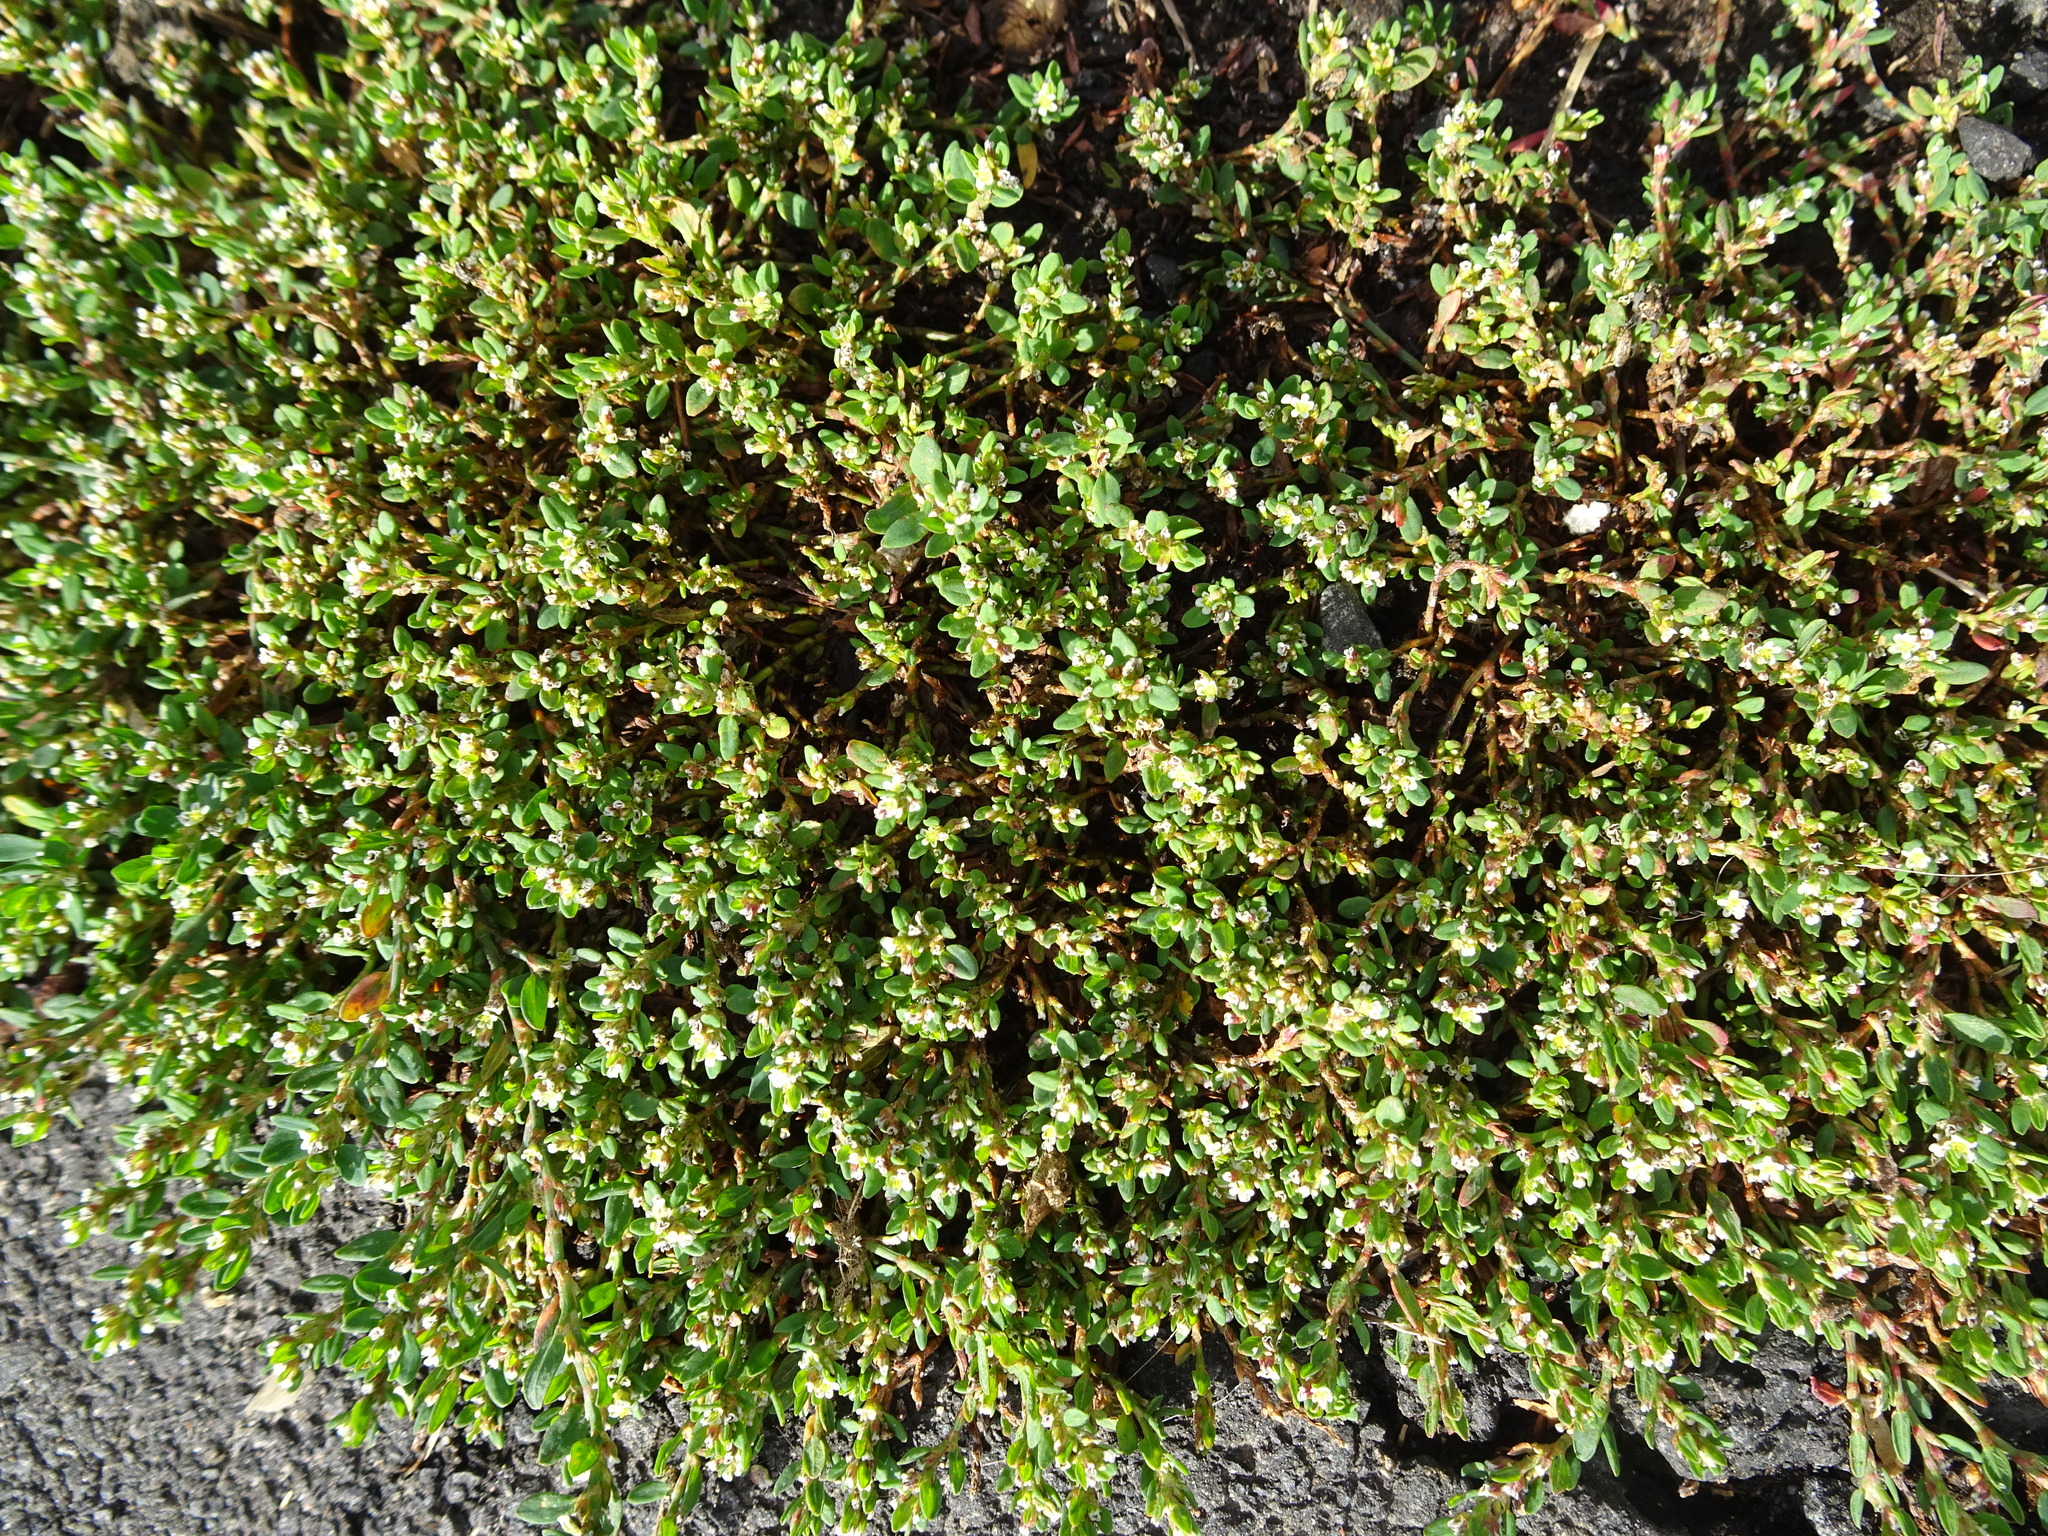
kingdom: Plantae
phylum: Tracheophyta
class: Magnoliopsida
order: Caryophyllales
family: Polygonaceae
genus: Polygonum
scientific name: Polygonum arenastrum
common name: Equal-leaved knotgrass
